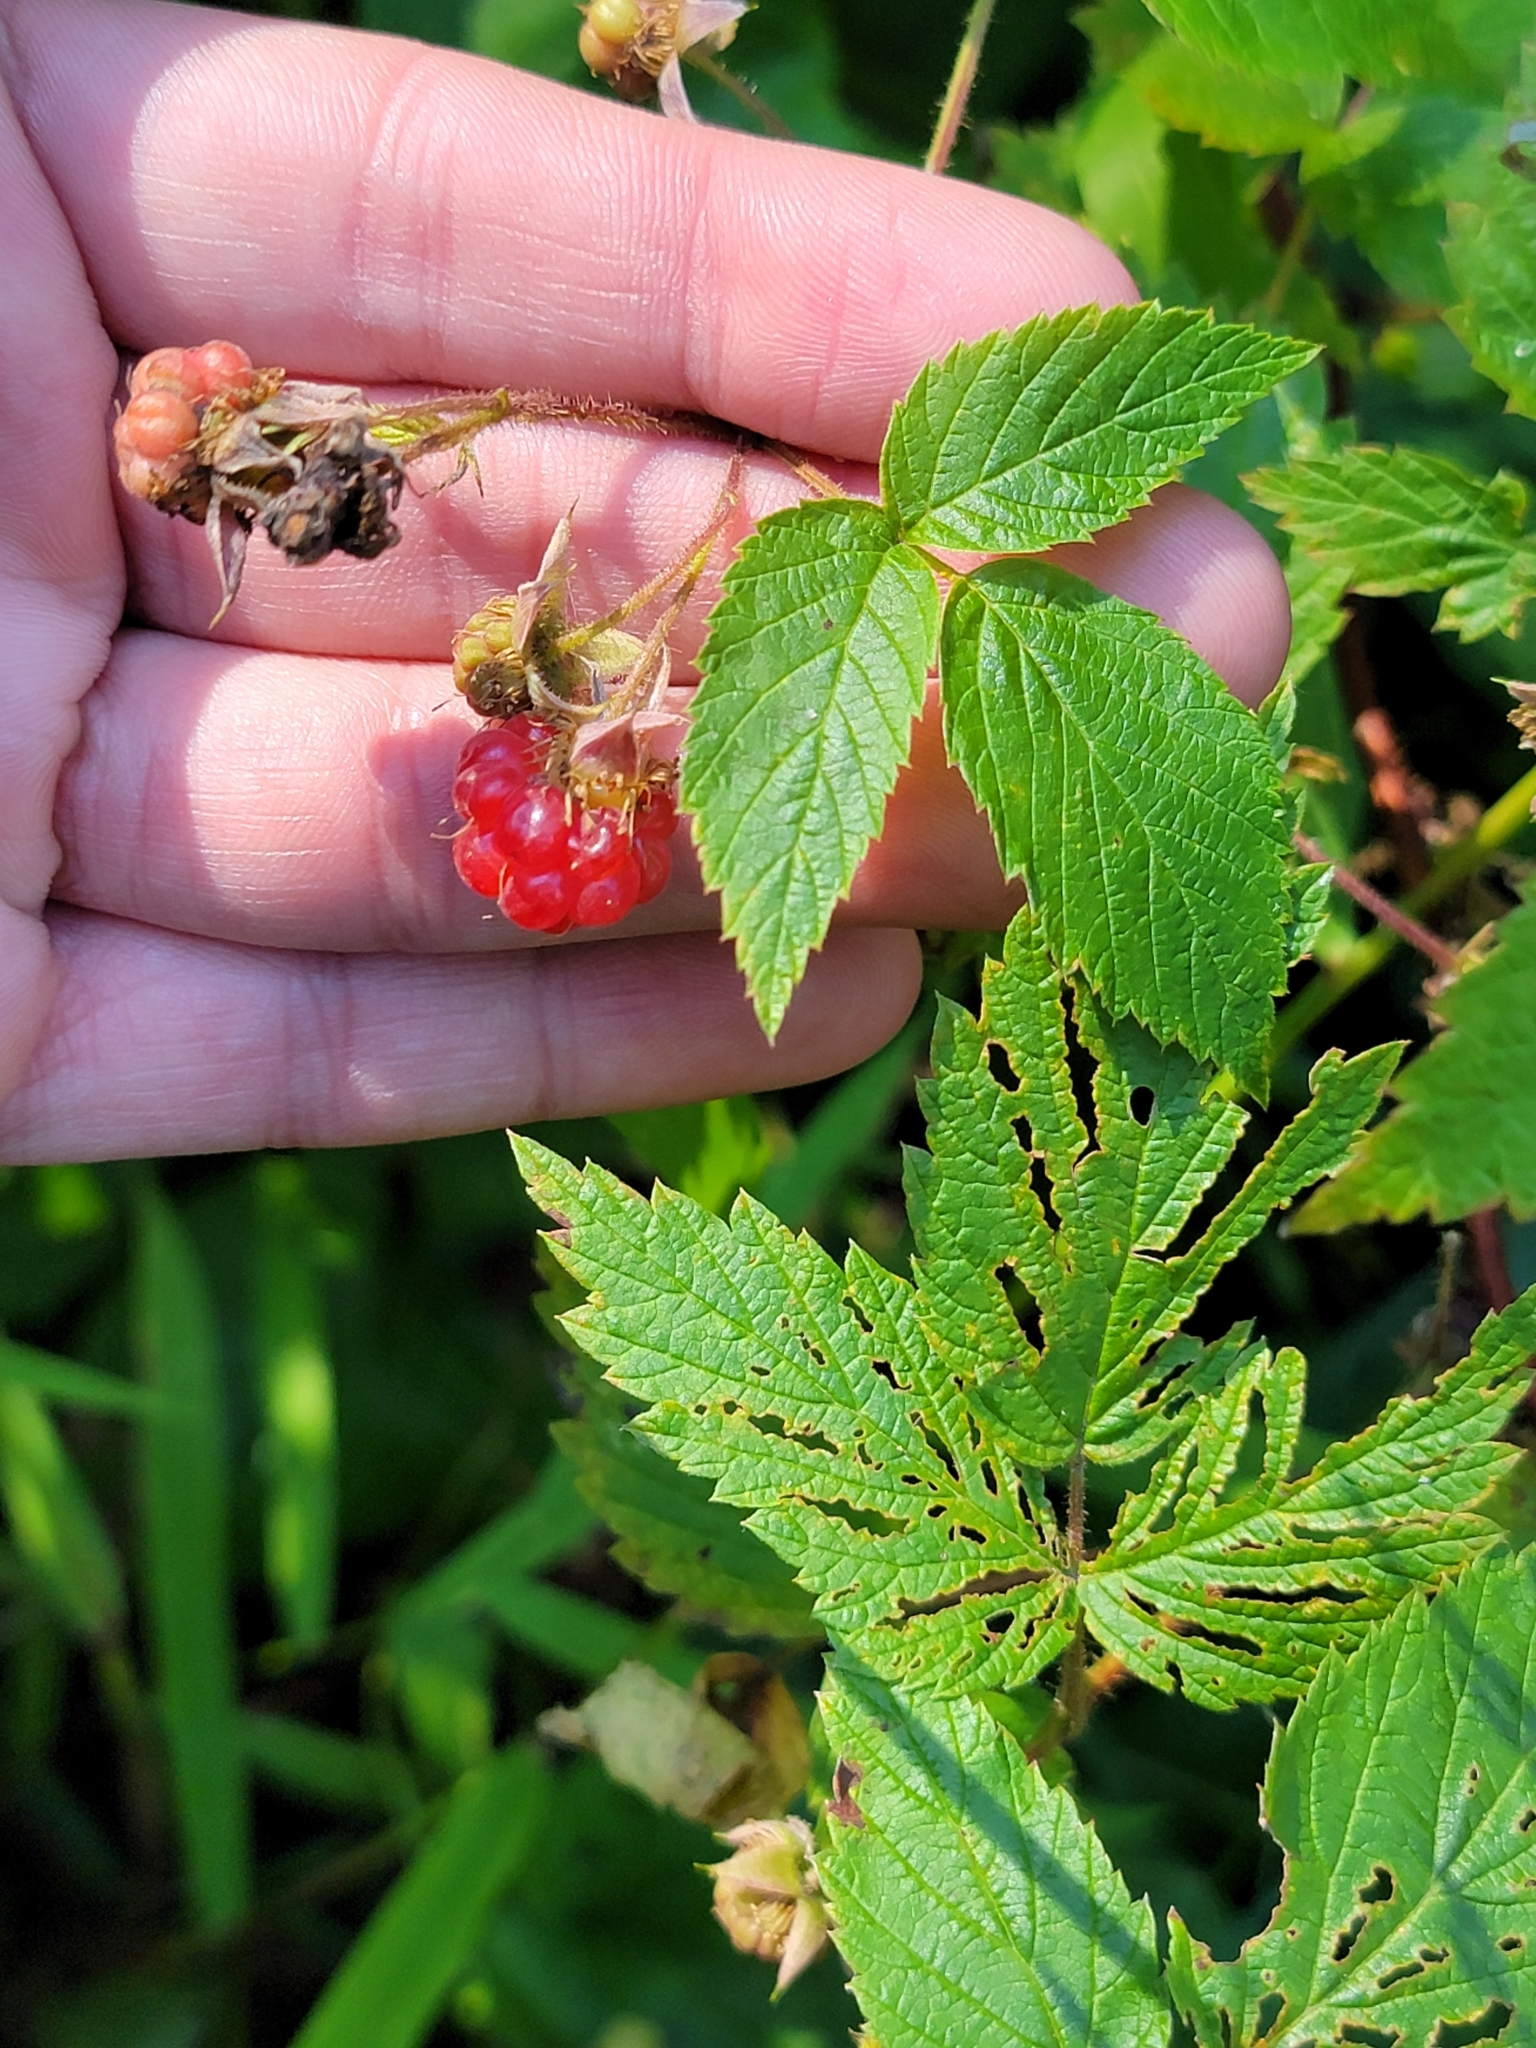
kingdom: Plantae
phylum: Tracheophyta
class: Magnoliopsida
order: Rosales
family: Rosaceae
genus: Rubus
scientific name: Rubus idaeus
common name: Raspberry
